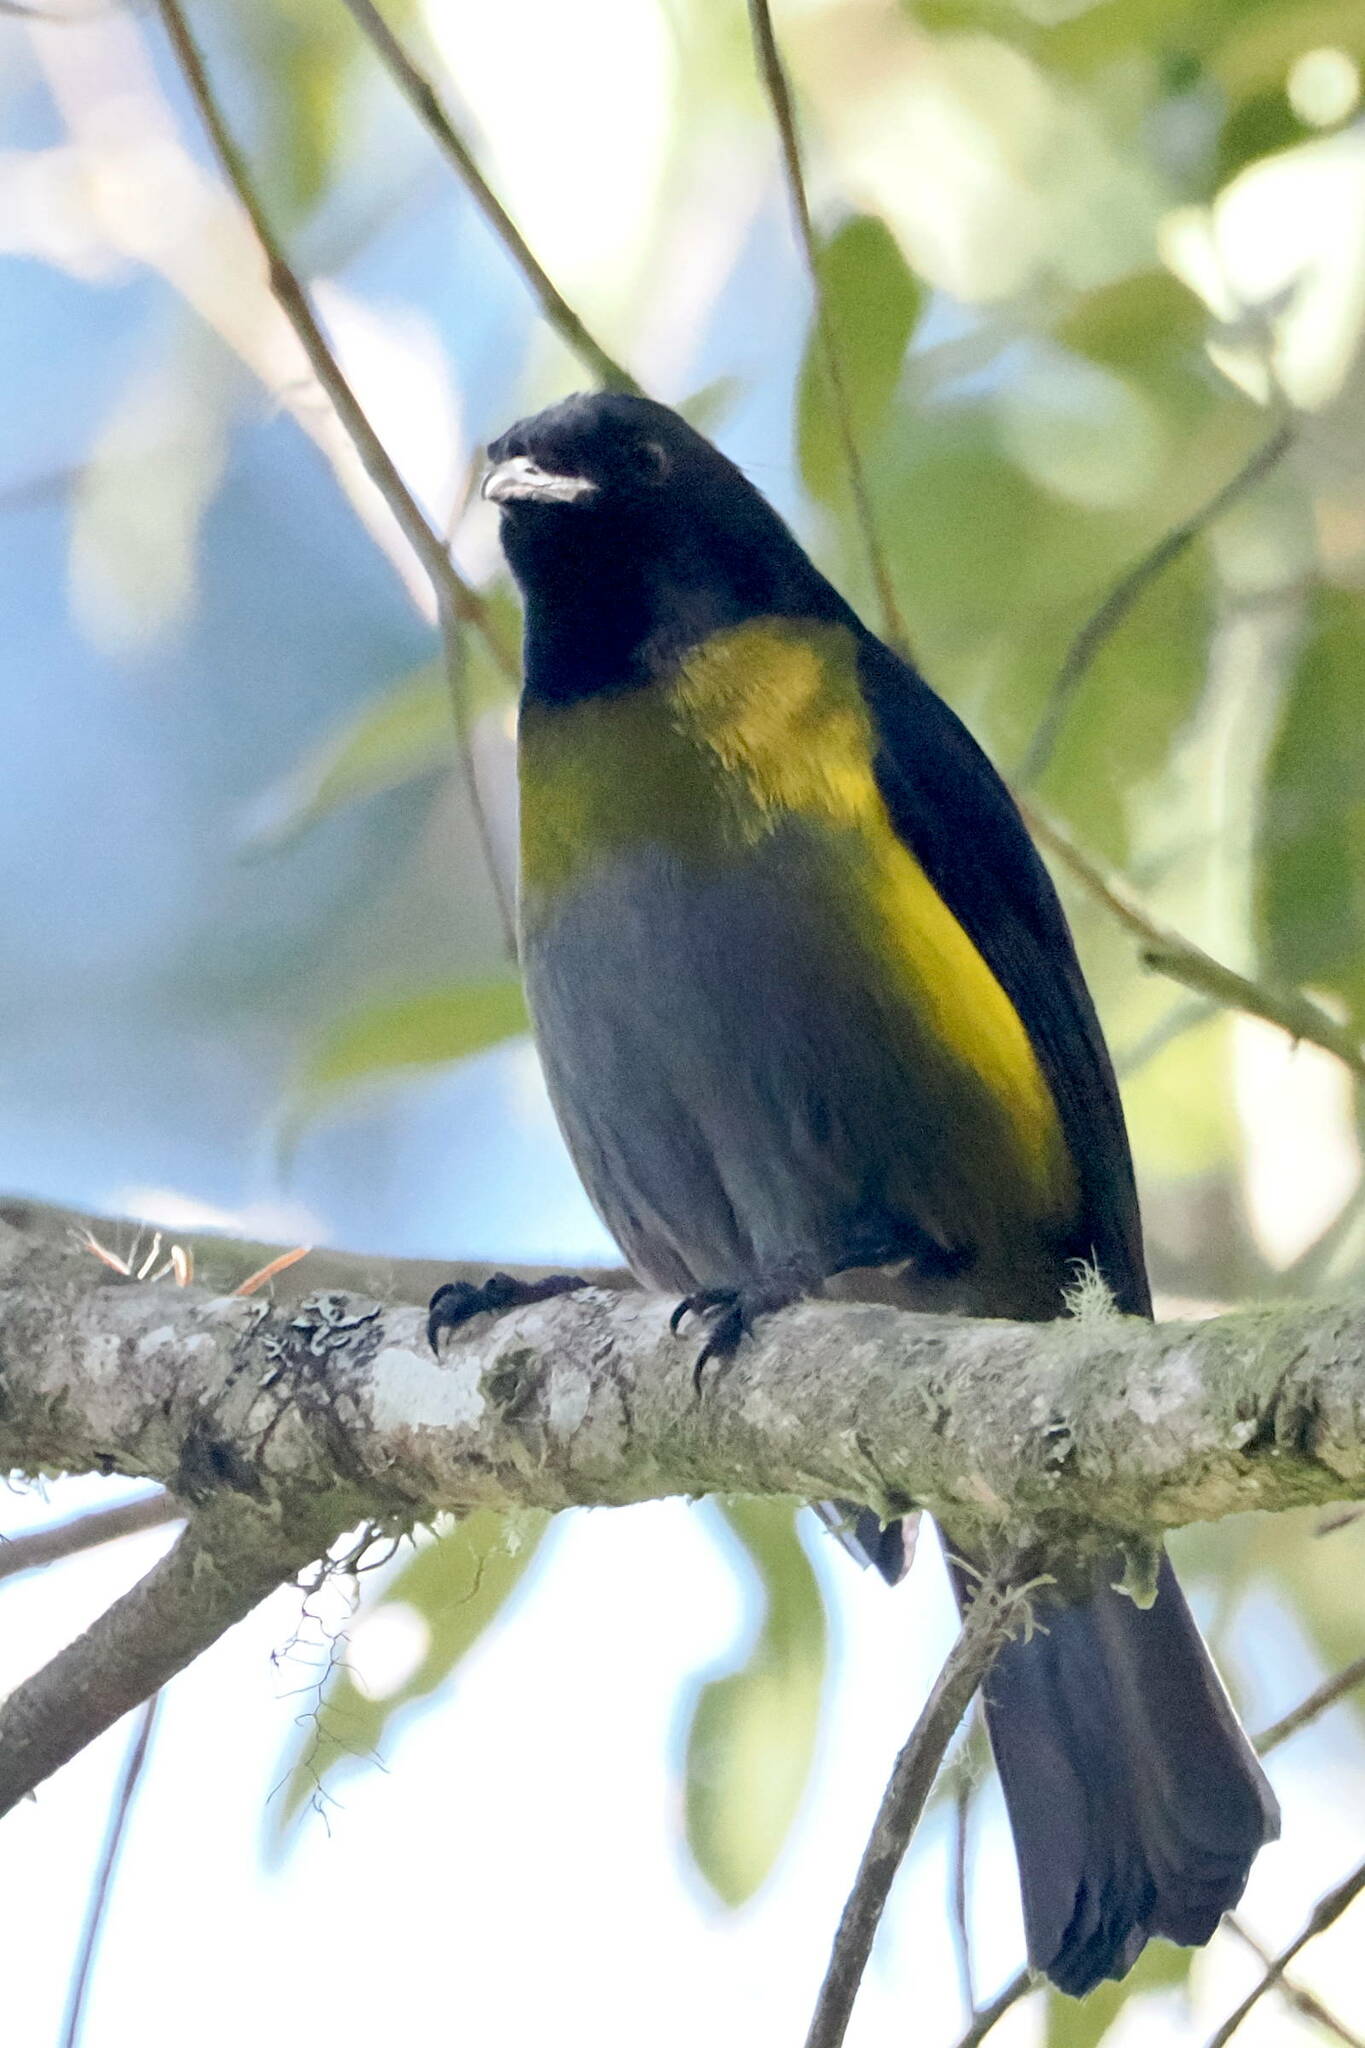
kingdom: Animalia
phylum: Chordata
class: Aves
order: Passeriformes
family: Ptilogonatidae
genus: Phainoptila
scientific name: Phainoptila melanoxantha
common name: Black-and-yellow phainoptila
